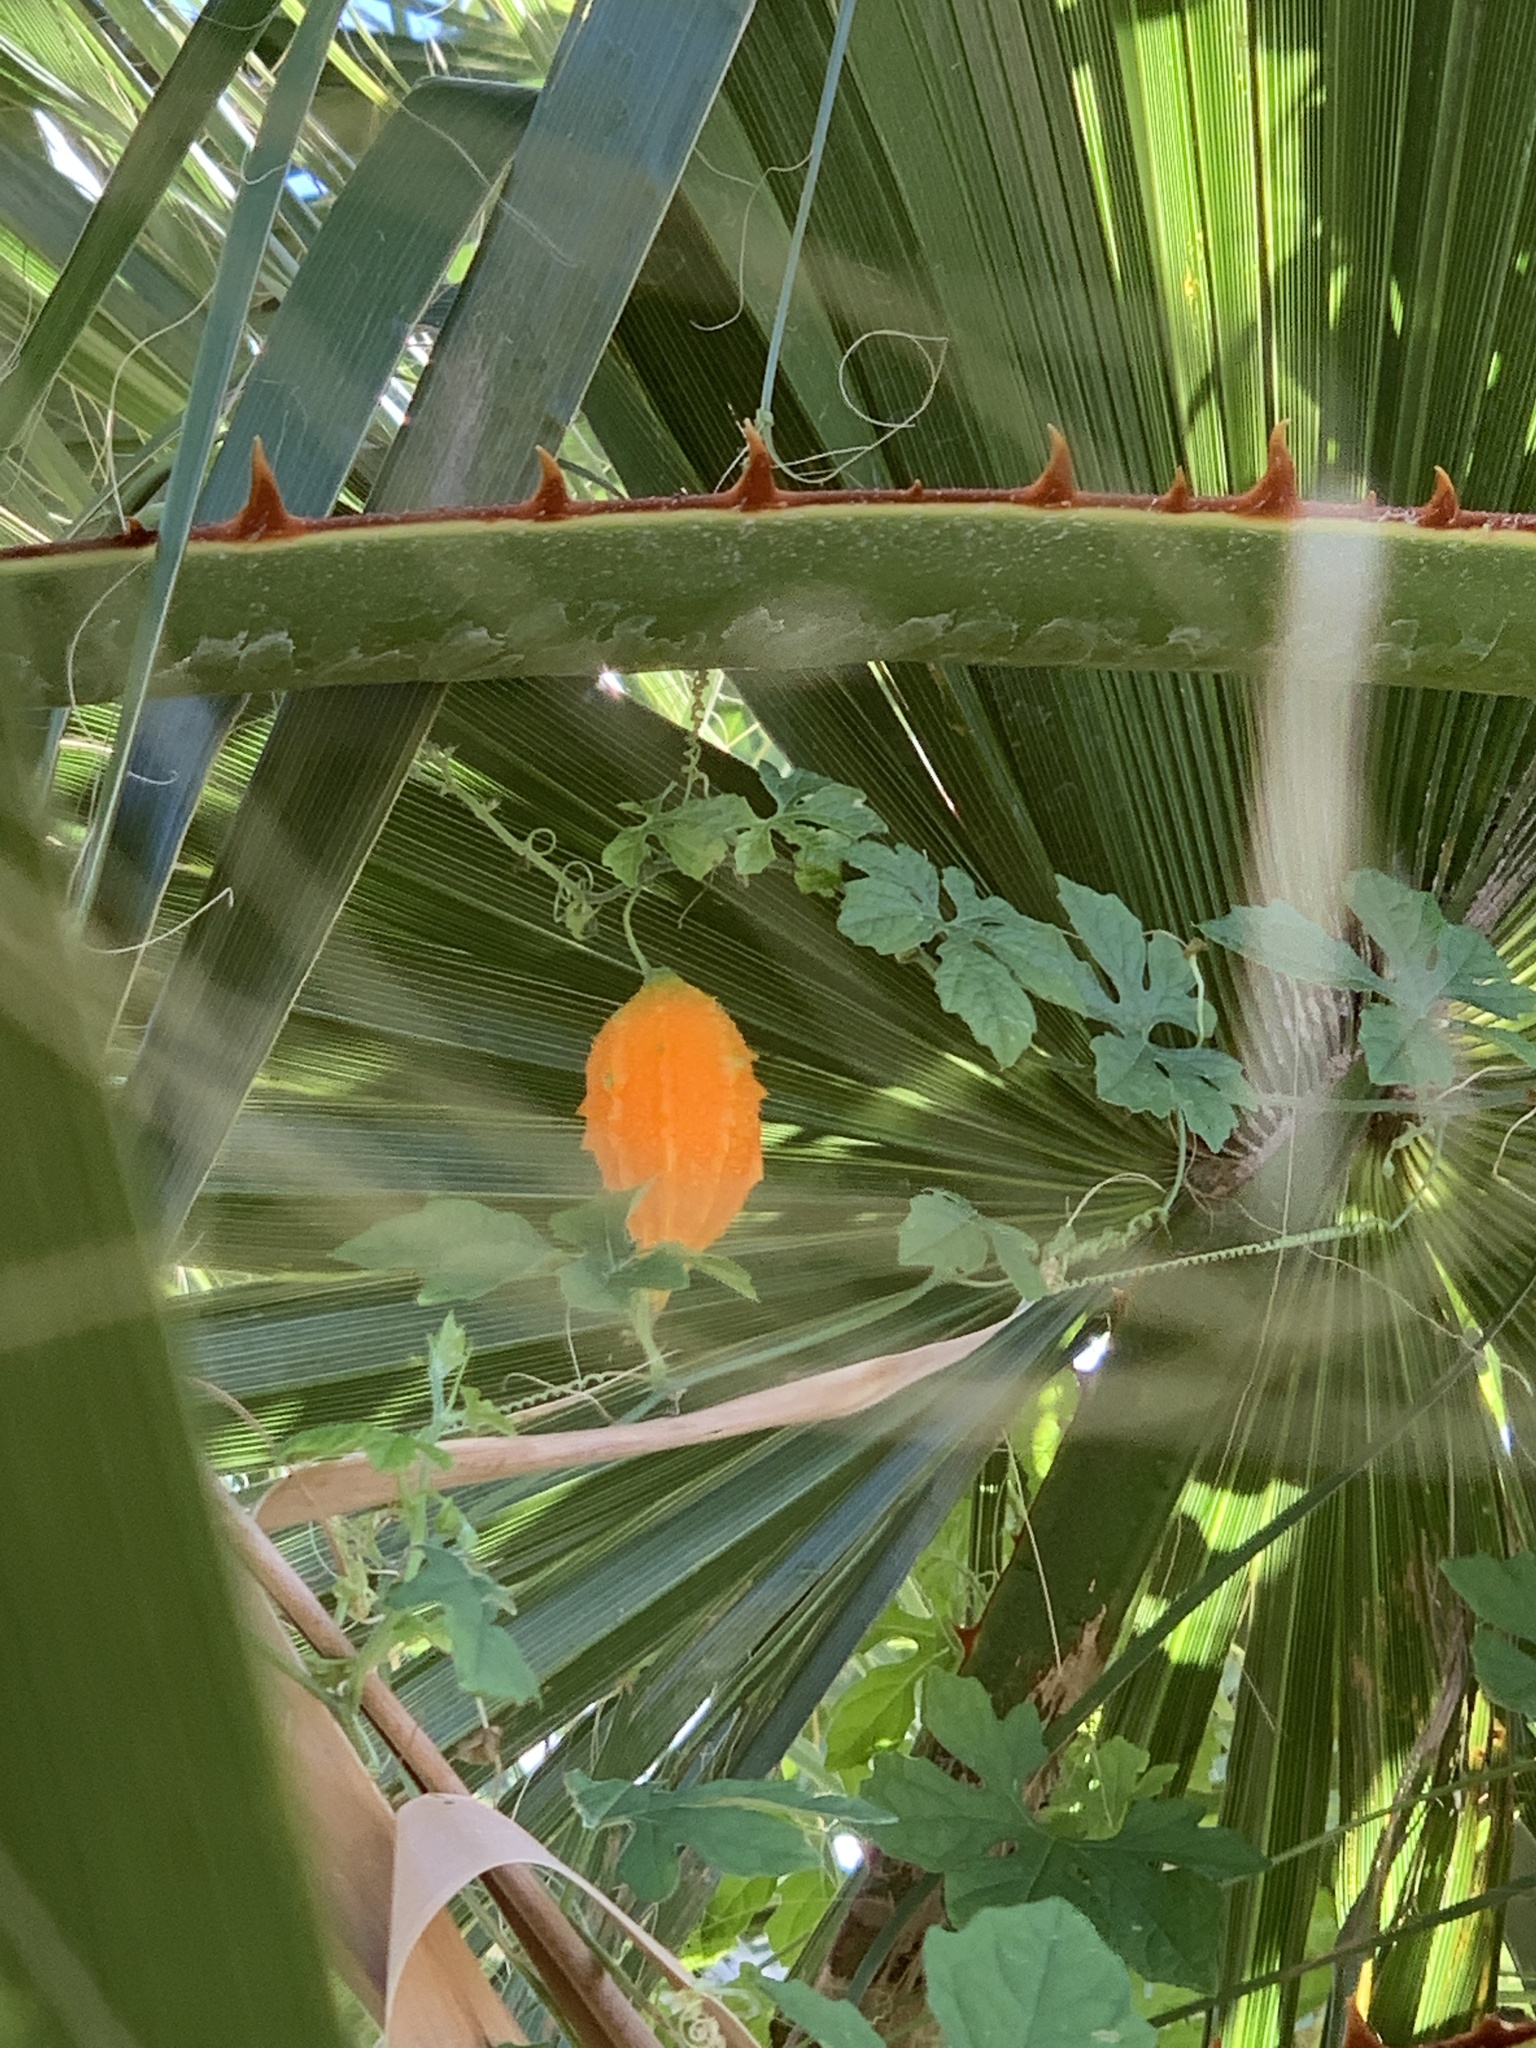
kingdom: Plantae
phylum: Tracheophyta
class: Magnoliopsida
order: Cucurbitales
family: Cucurbitaceae
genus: Momordica
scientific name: Momordica charantia
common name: Balsampear
